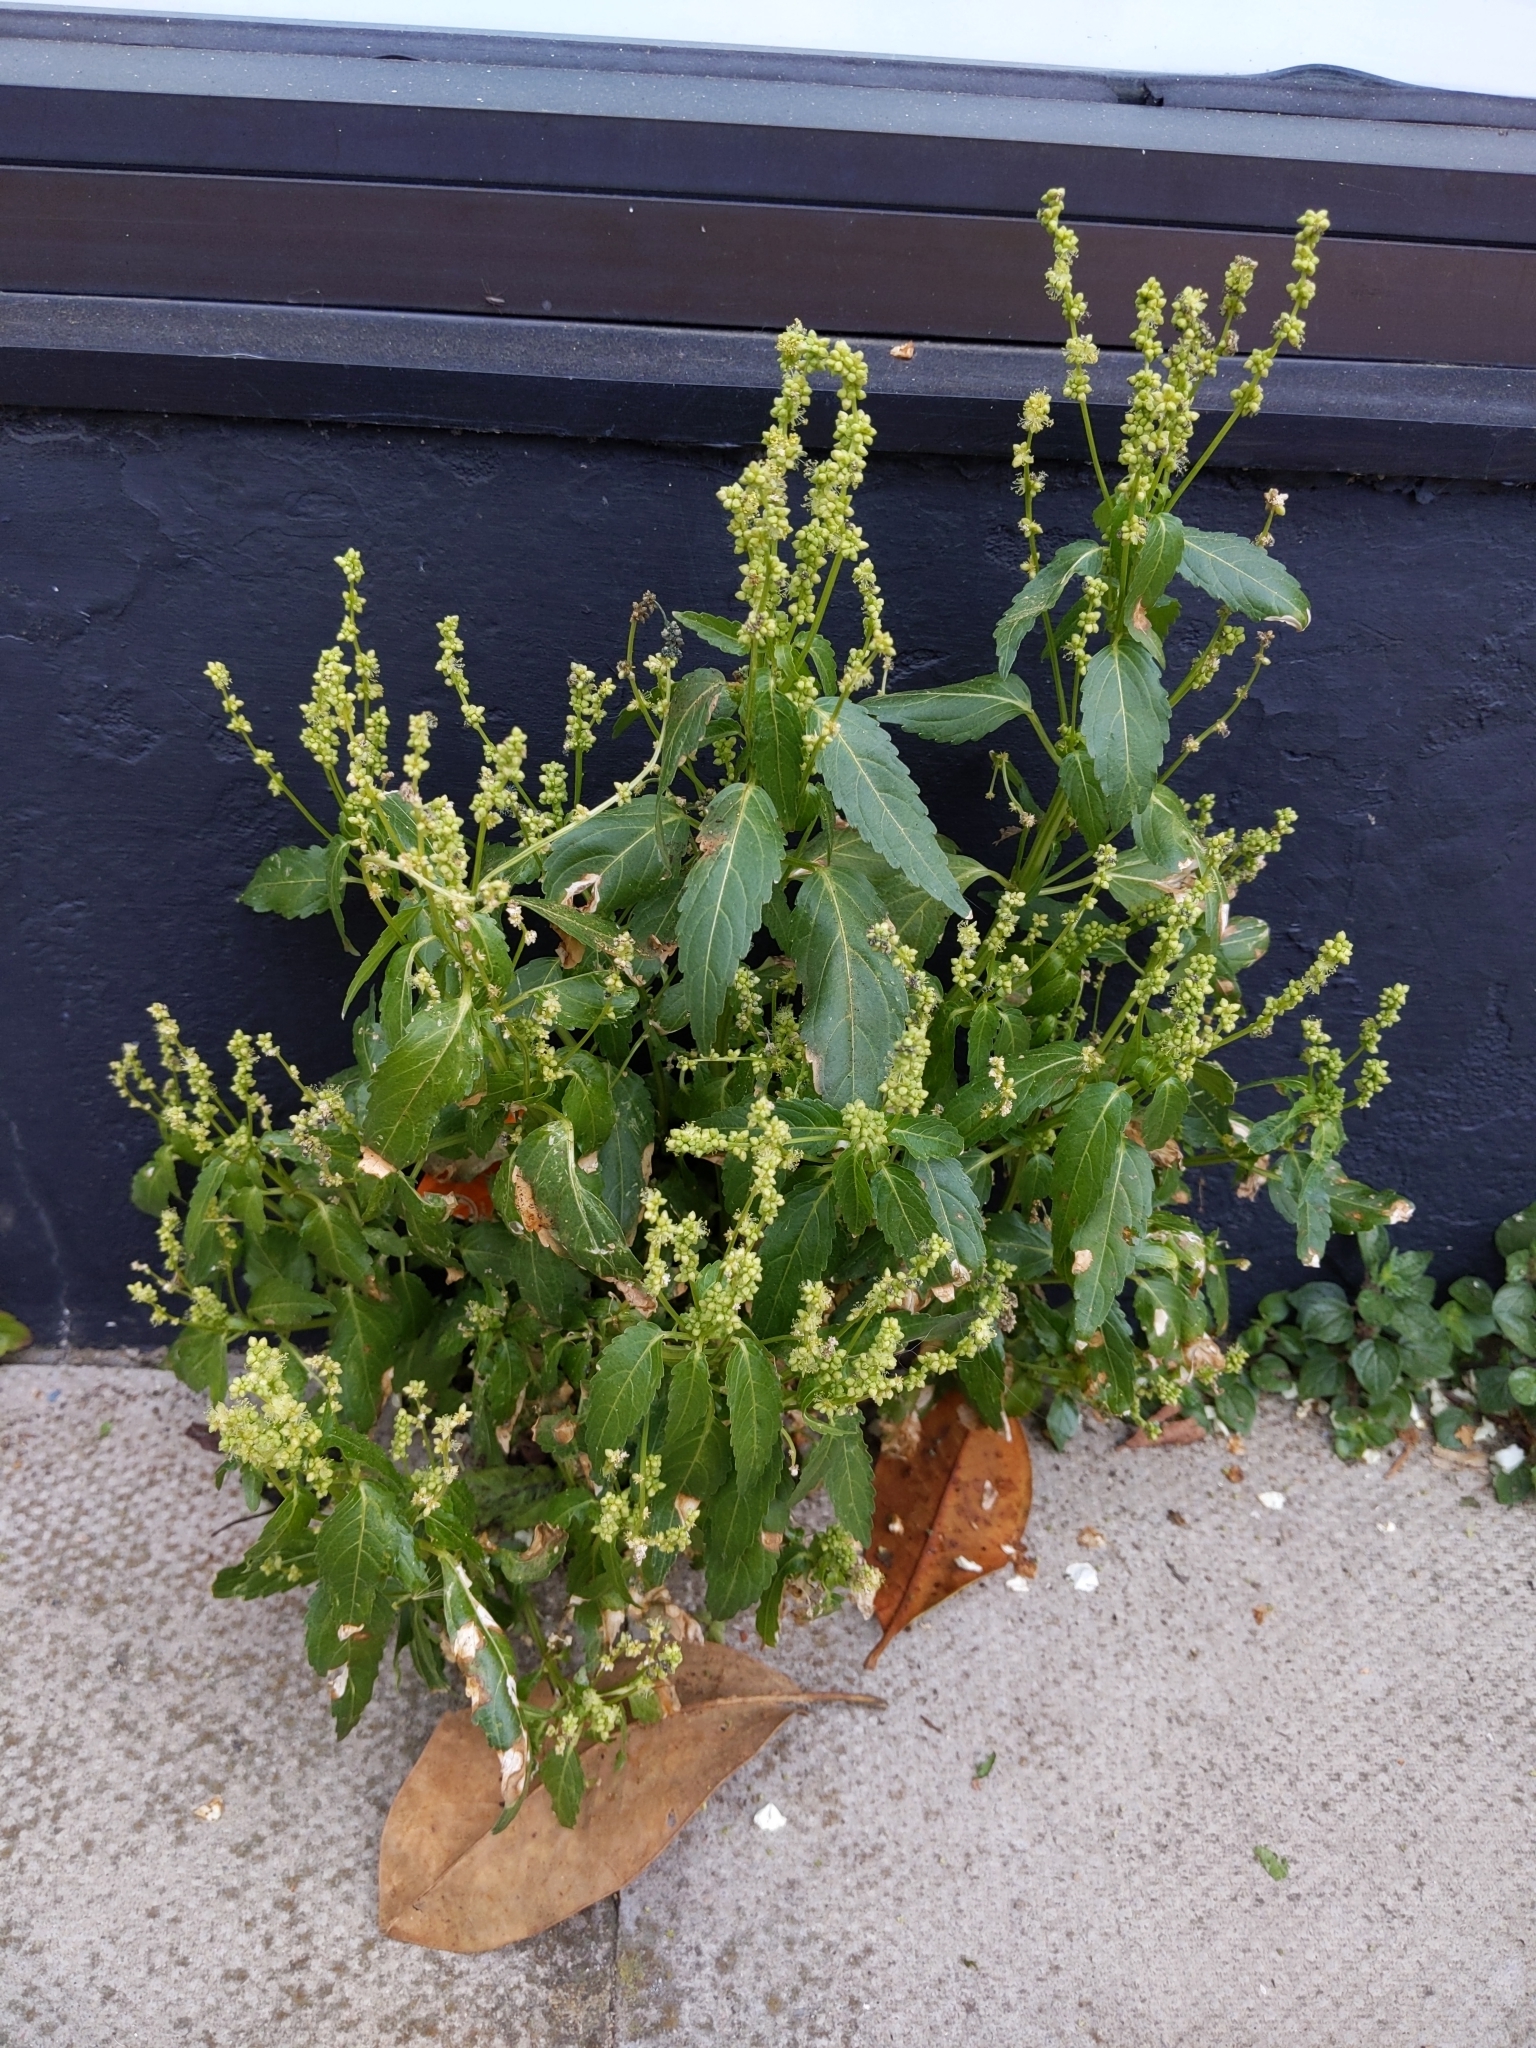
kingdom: Plantae
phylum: Tracheophyta
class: Magnoliopsida
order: Malpighiales
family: Euphorbiaceae
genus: Mercurialis
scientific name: Mercurialis annua
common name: Annual mercury
